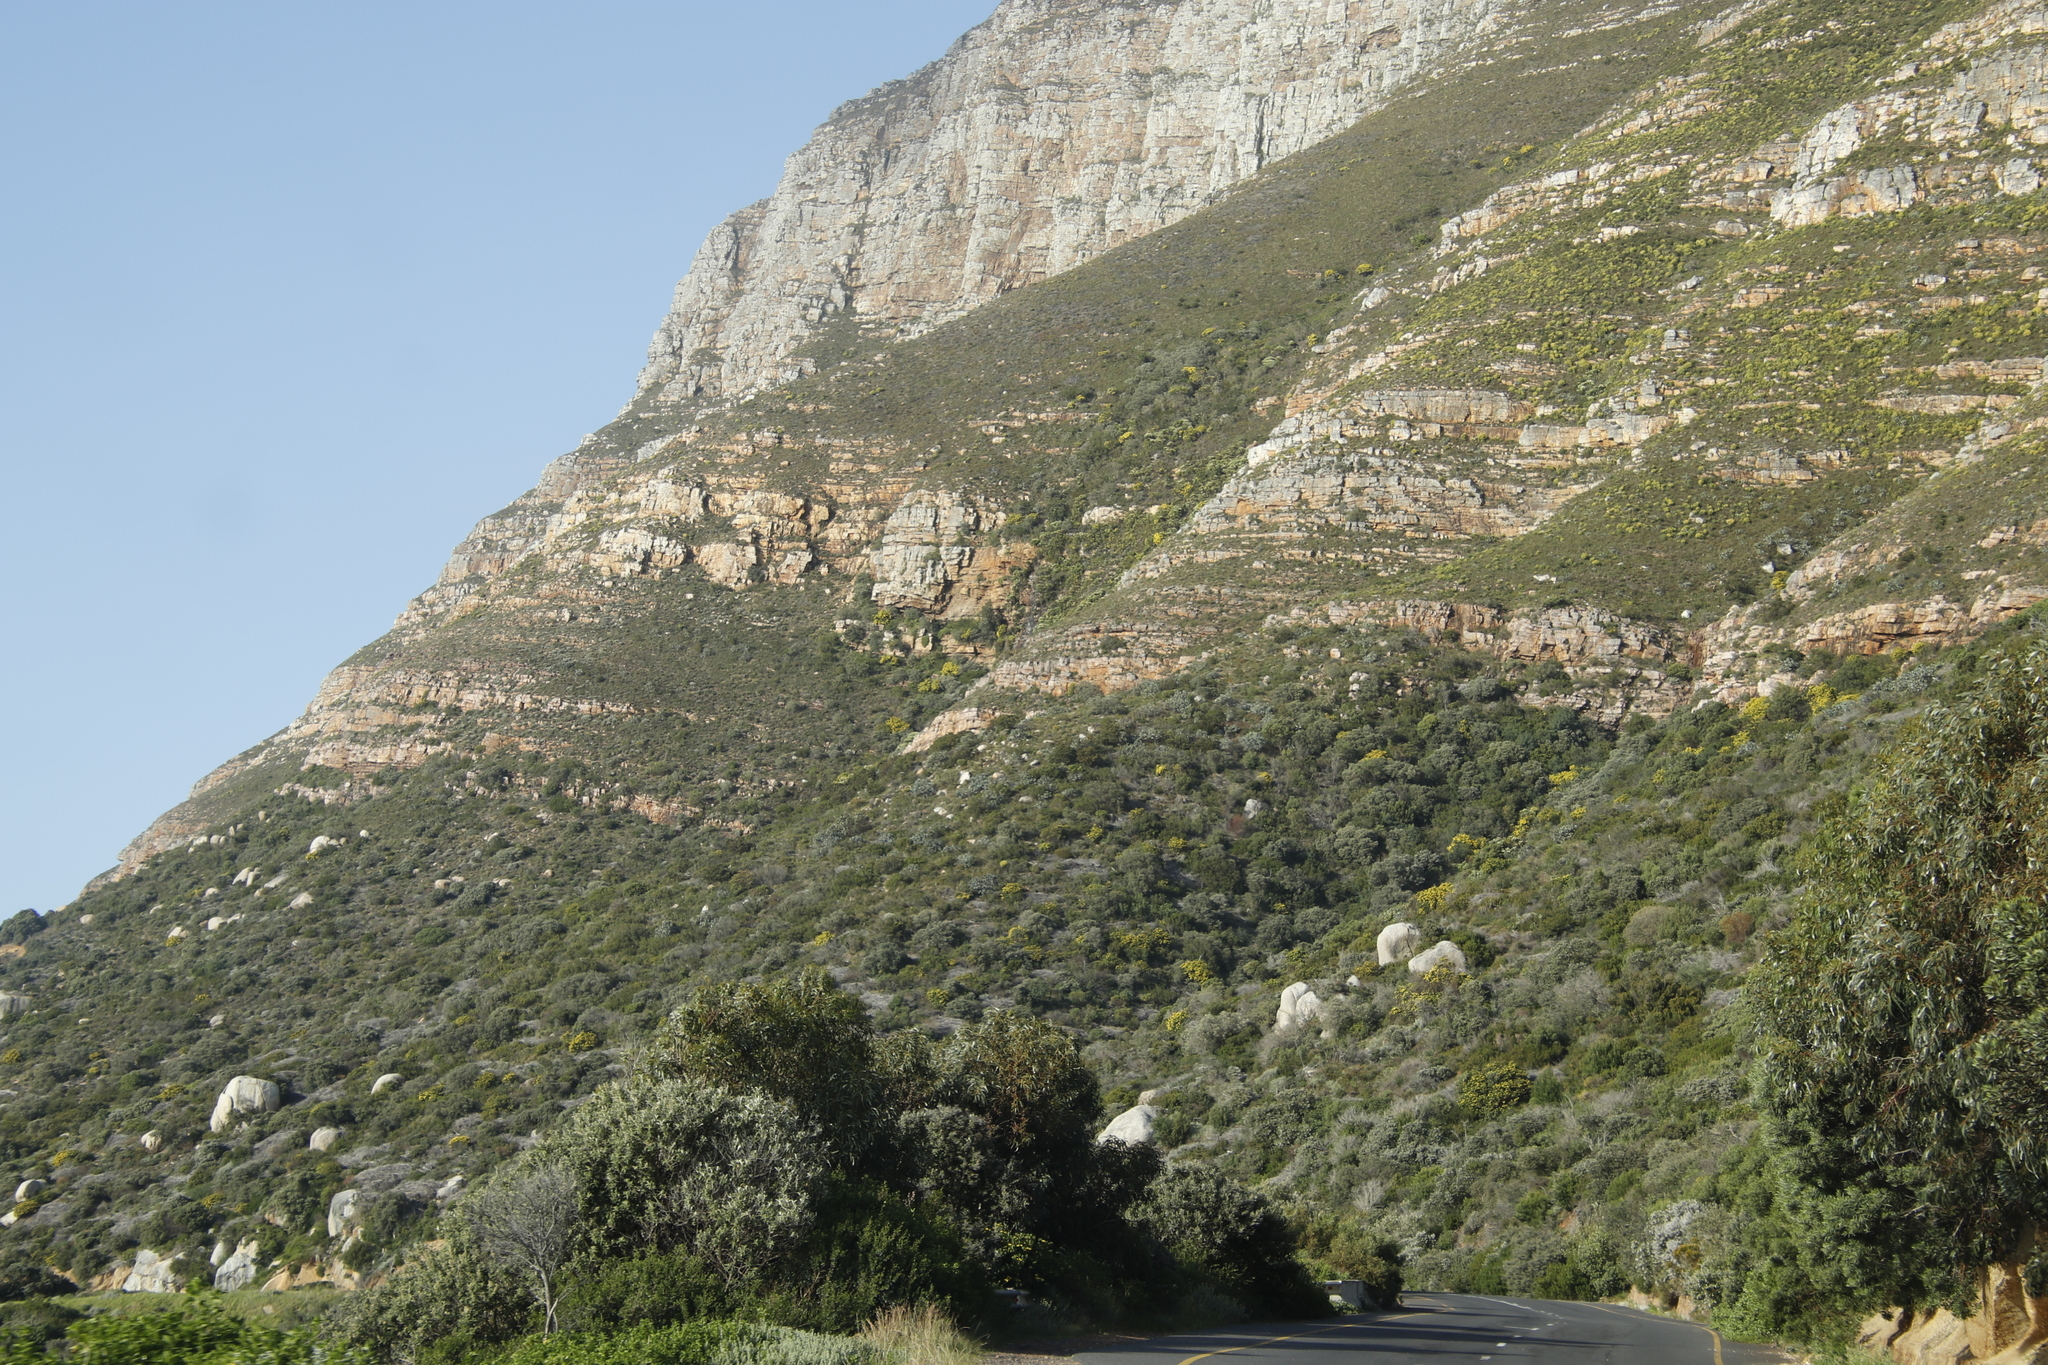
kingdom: Plantae
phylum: Tracheophyta
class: Magnoliopsida
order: Proteales
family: Proteaceae
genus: Protea
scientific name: Protea nitida
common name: Tree protea
